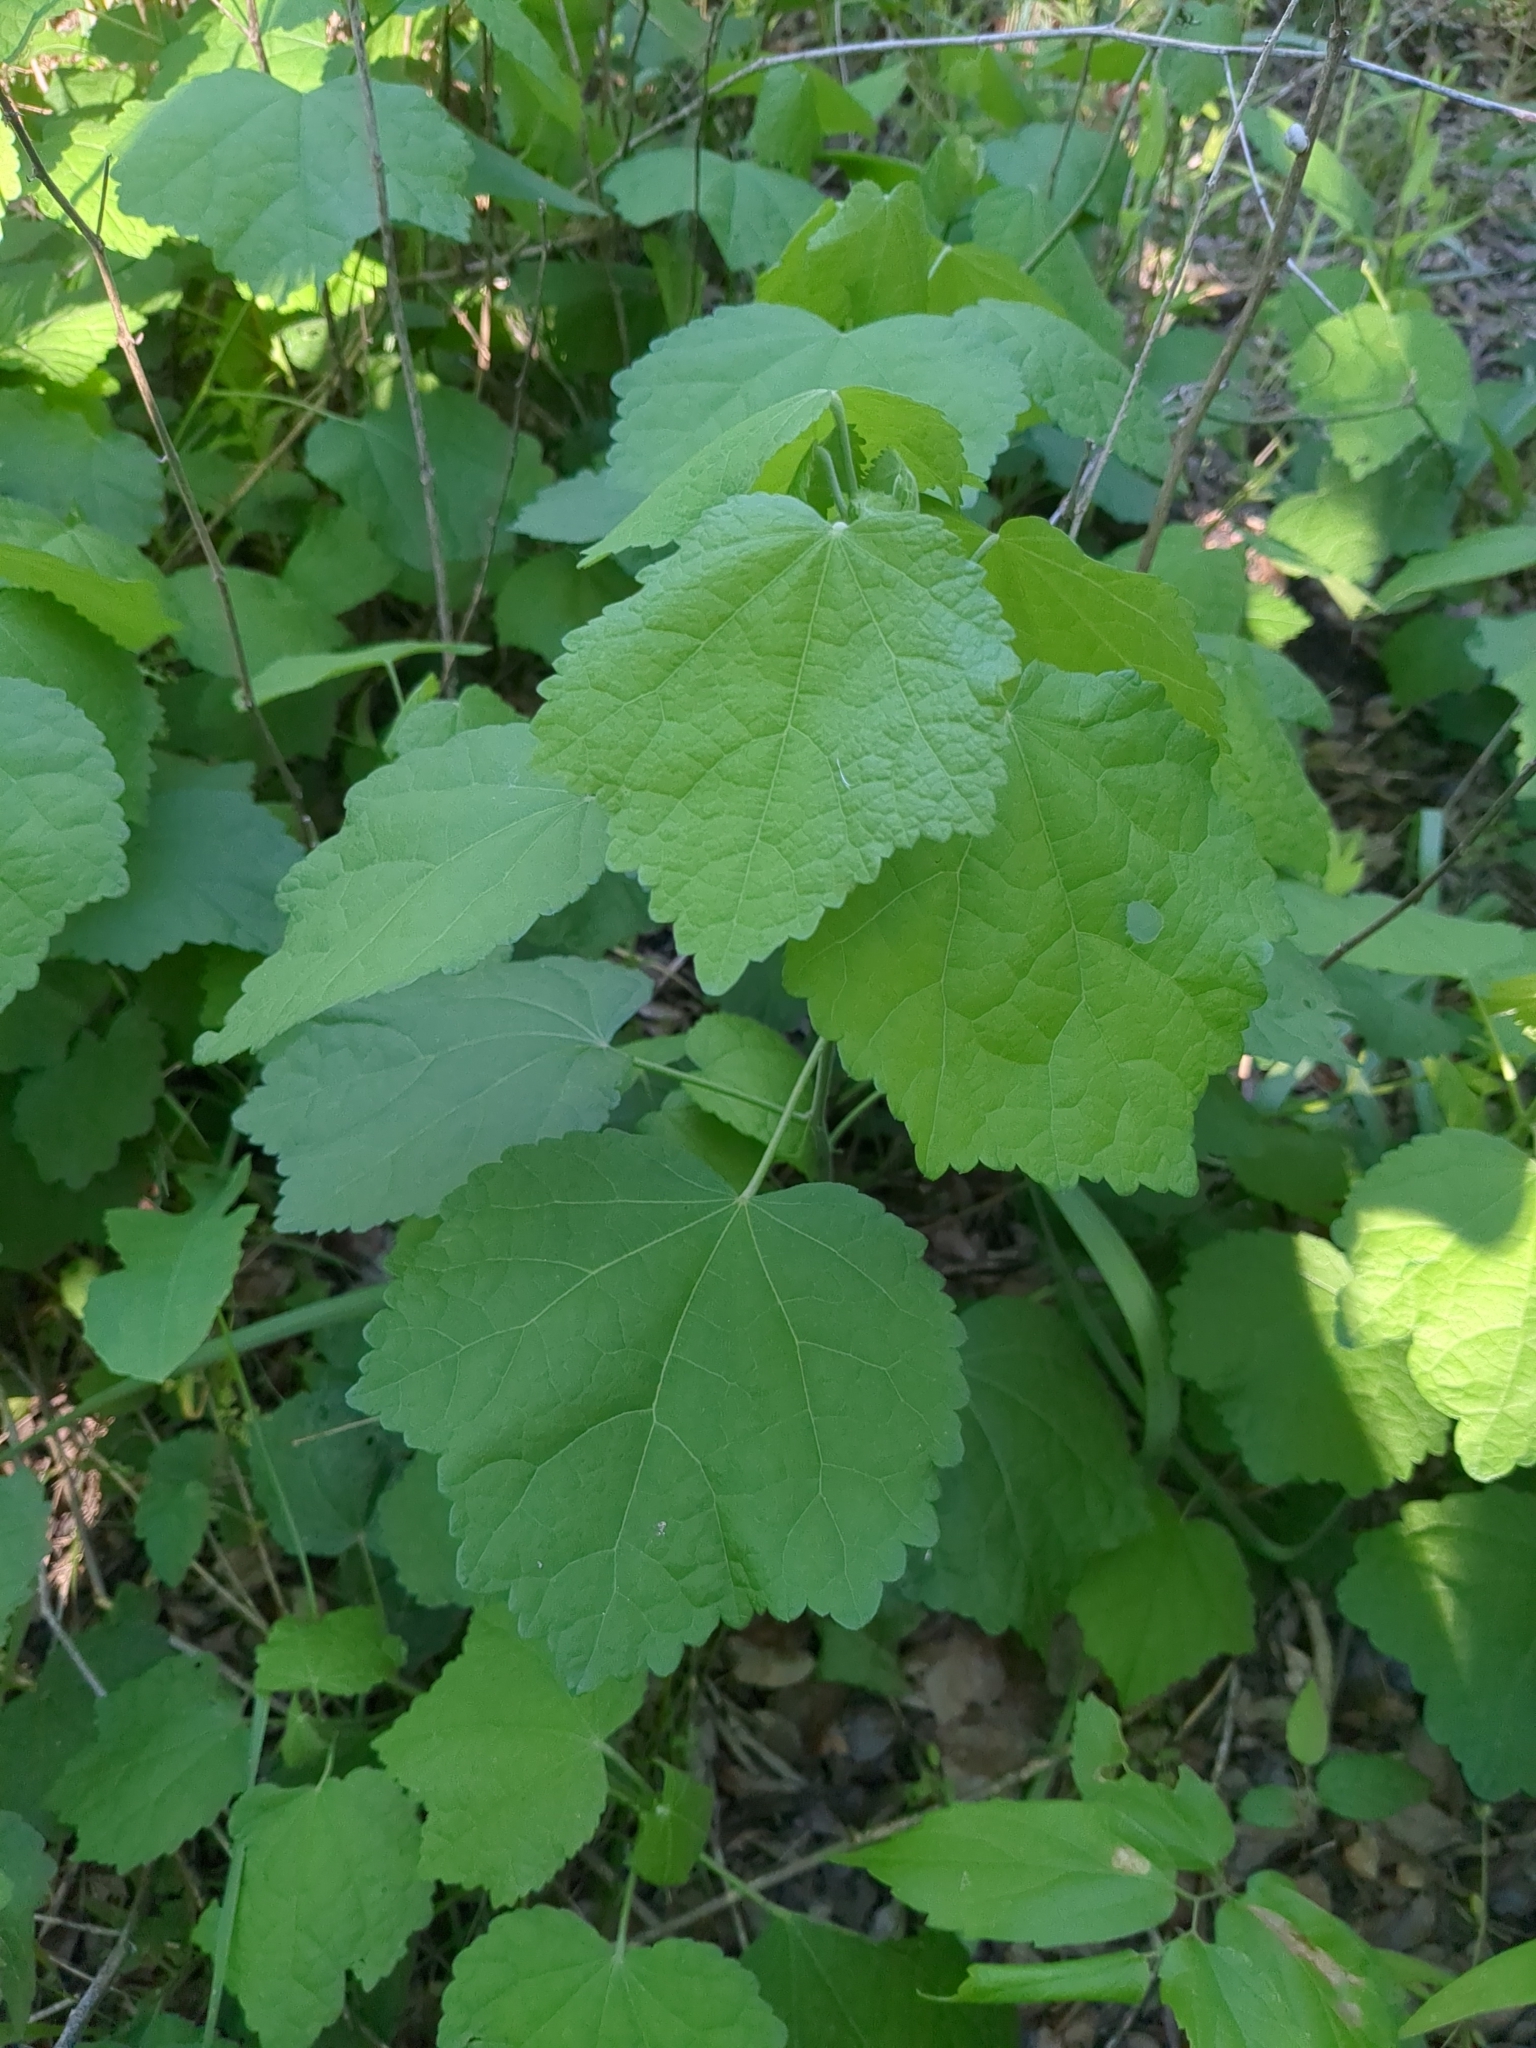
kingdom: Plantae
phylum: Tracheophyta
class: Magnoliopsida
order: Malvales
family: Malvaceae
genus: Malvaviscus
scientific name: Malvaviscus arboreus
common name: Wax mallow
